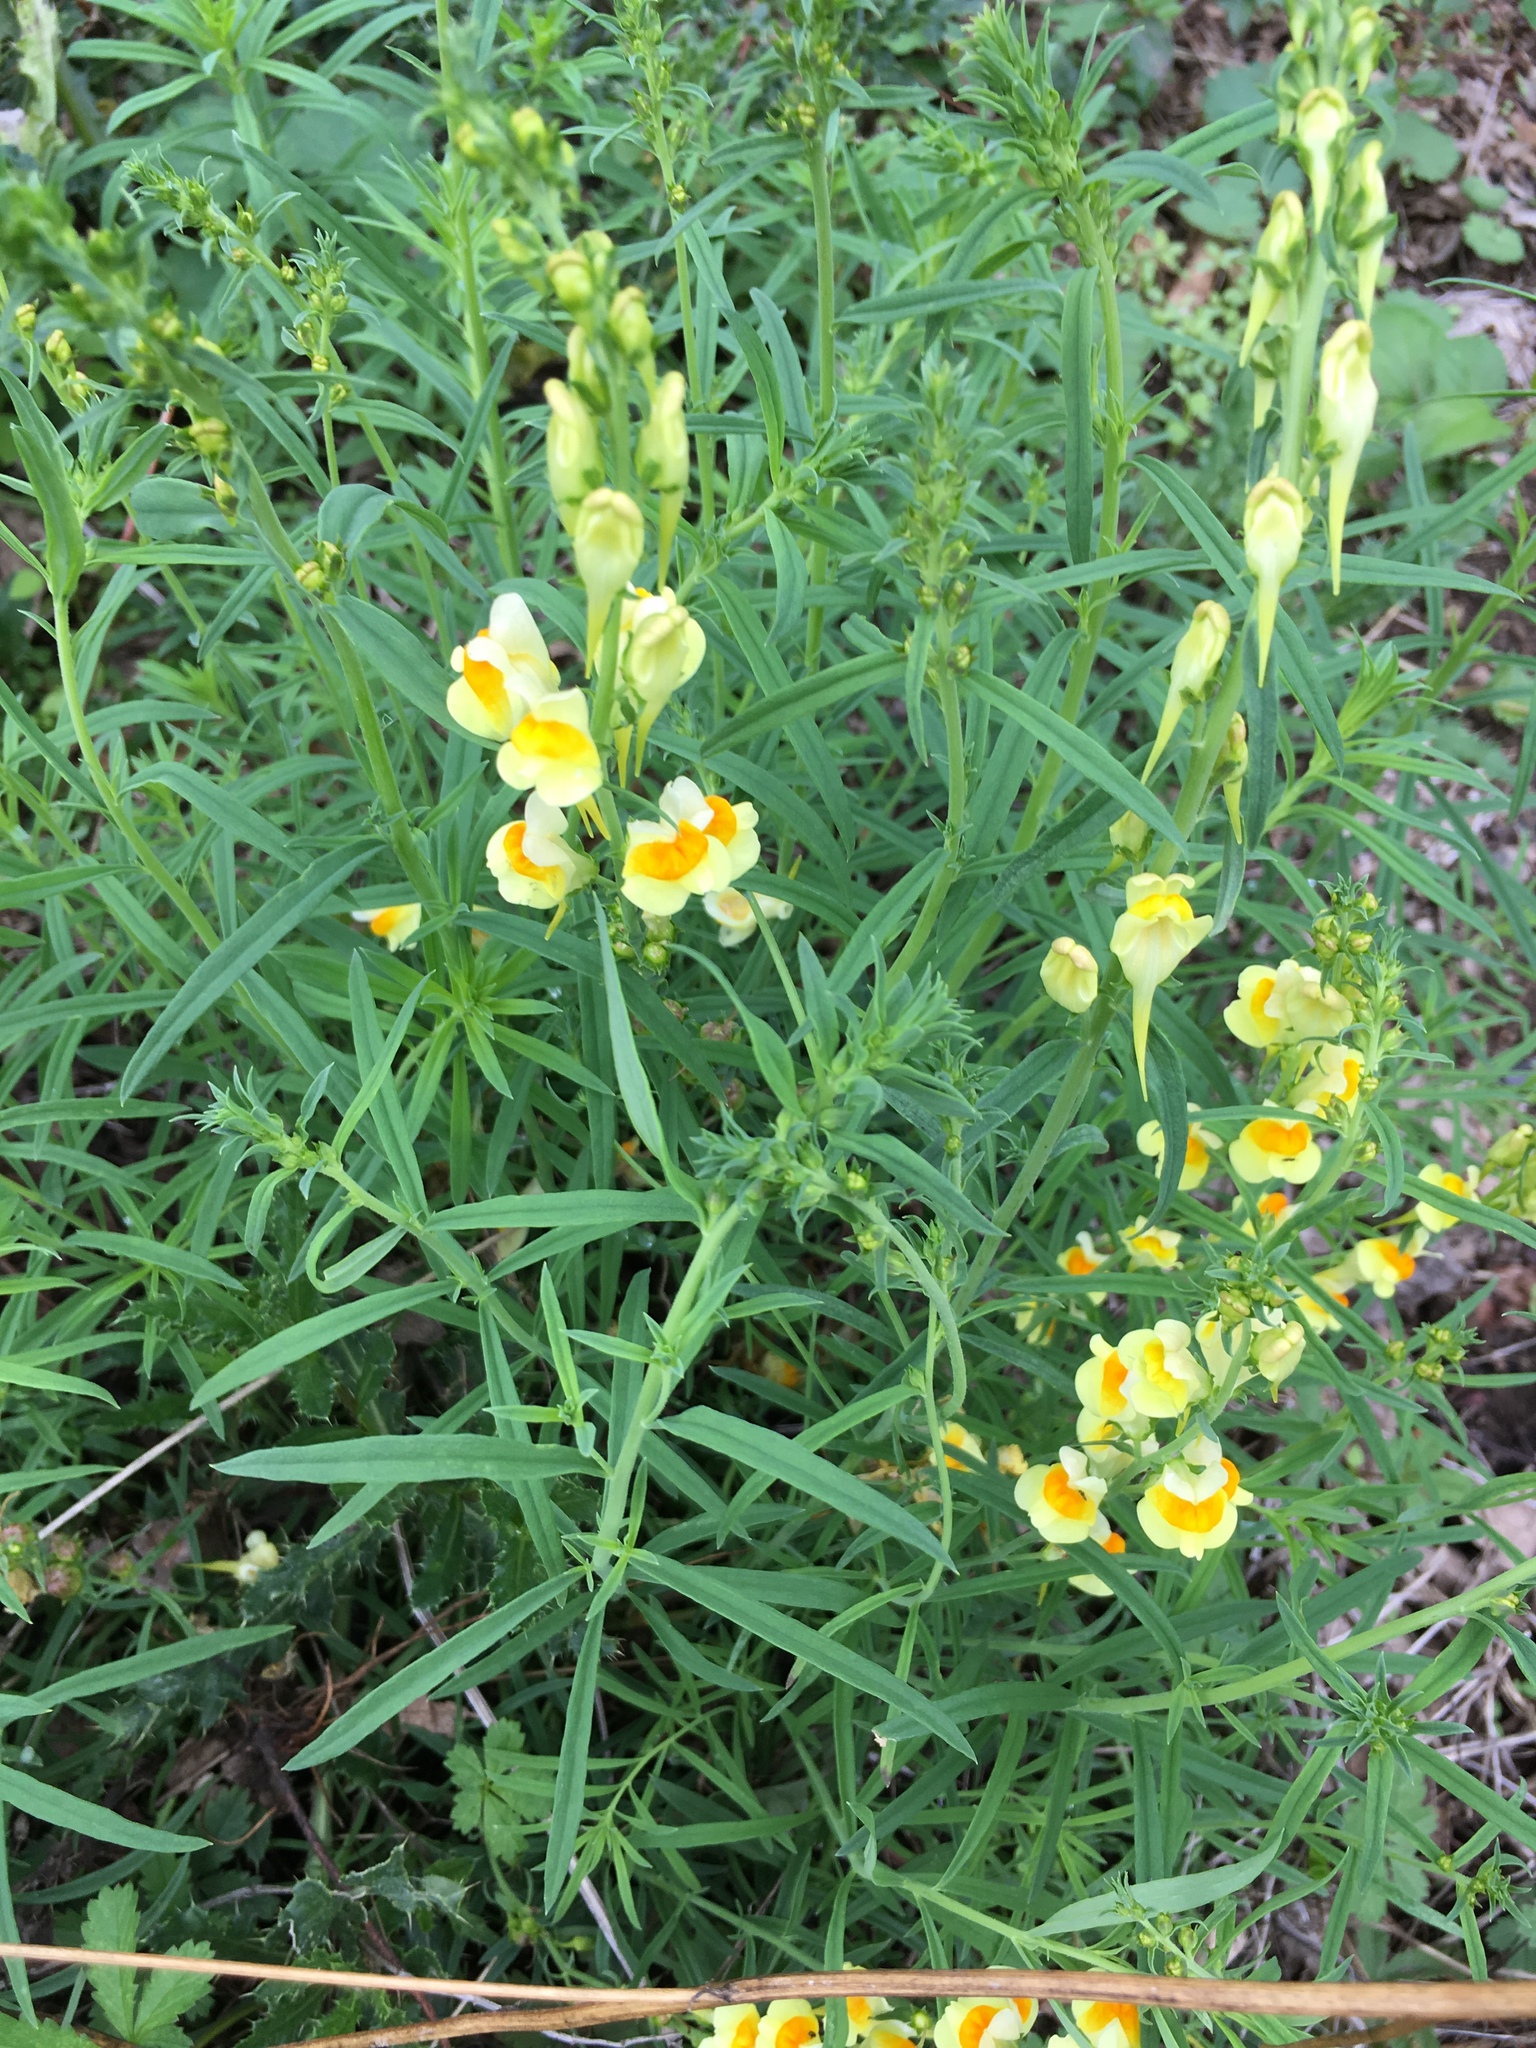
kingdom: Plantae
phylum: Tracheophyta
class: Magnoliopsida
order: Lamiales
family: Plantaginaceae
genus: Linaria
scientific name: Linaria vulgaris
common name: Butter and eggs
